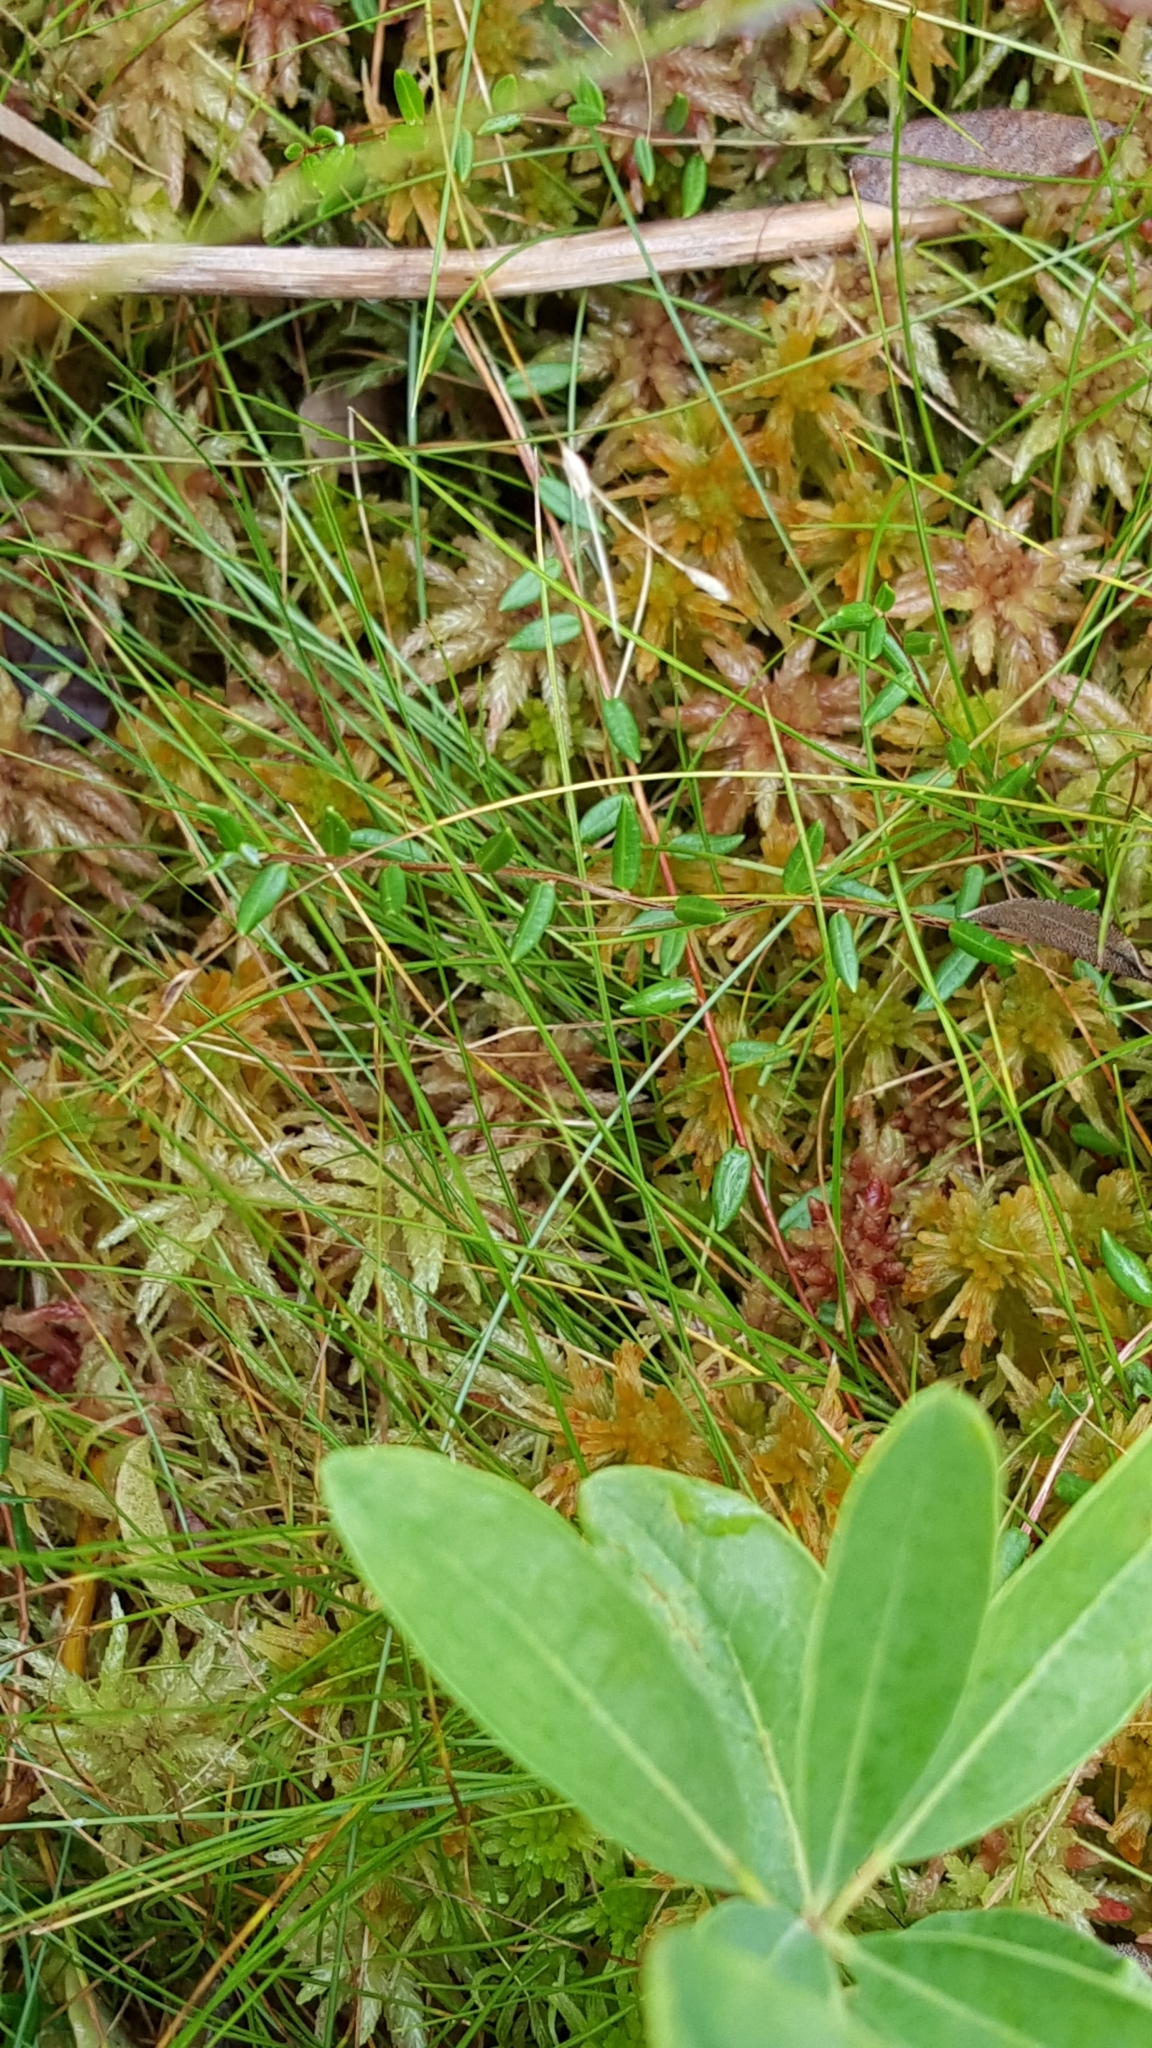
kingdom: Plantae
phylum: Tracheophyta
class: Magnoliopsida
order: Ericales
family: Ericaceae
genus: Vaccinium
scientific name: Vaccinium oxycoccos
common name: Cranberry
